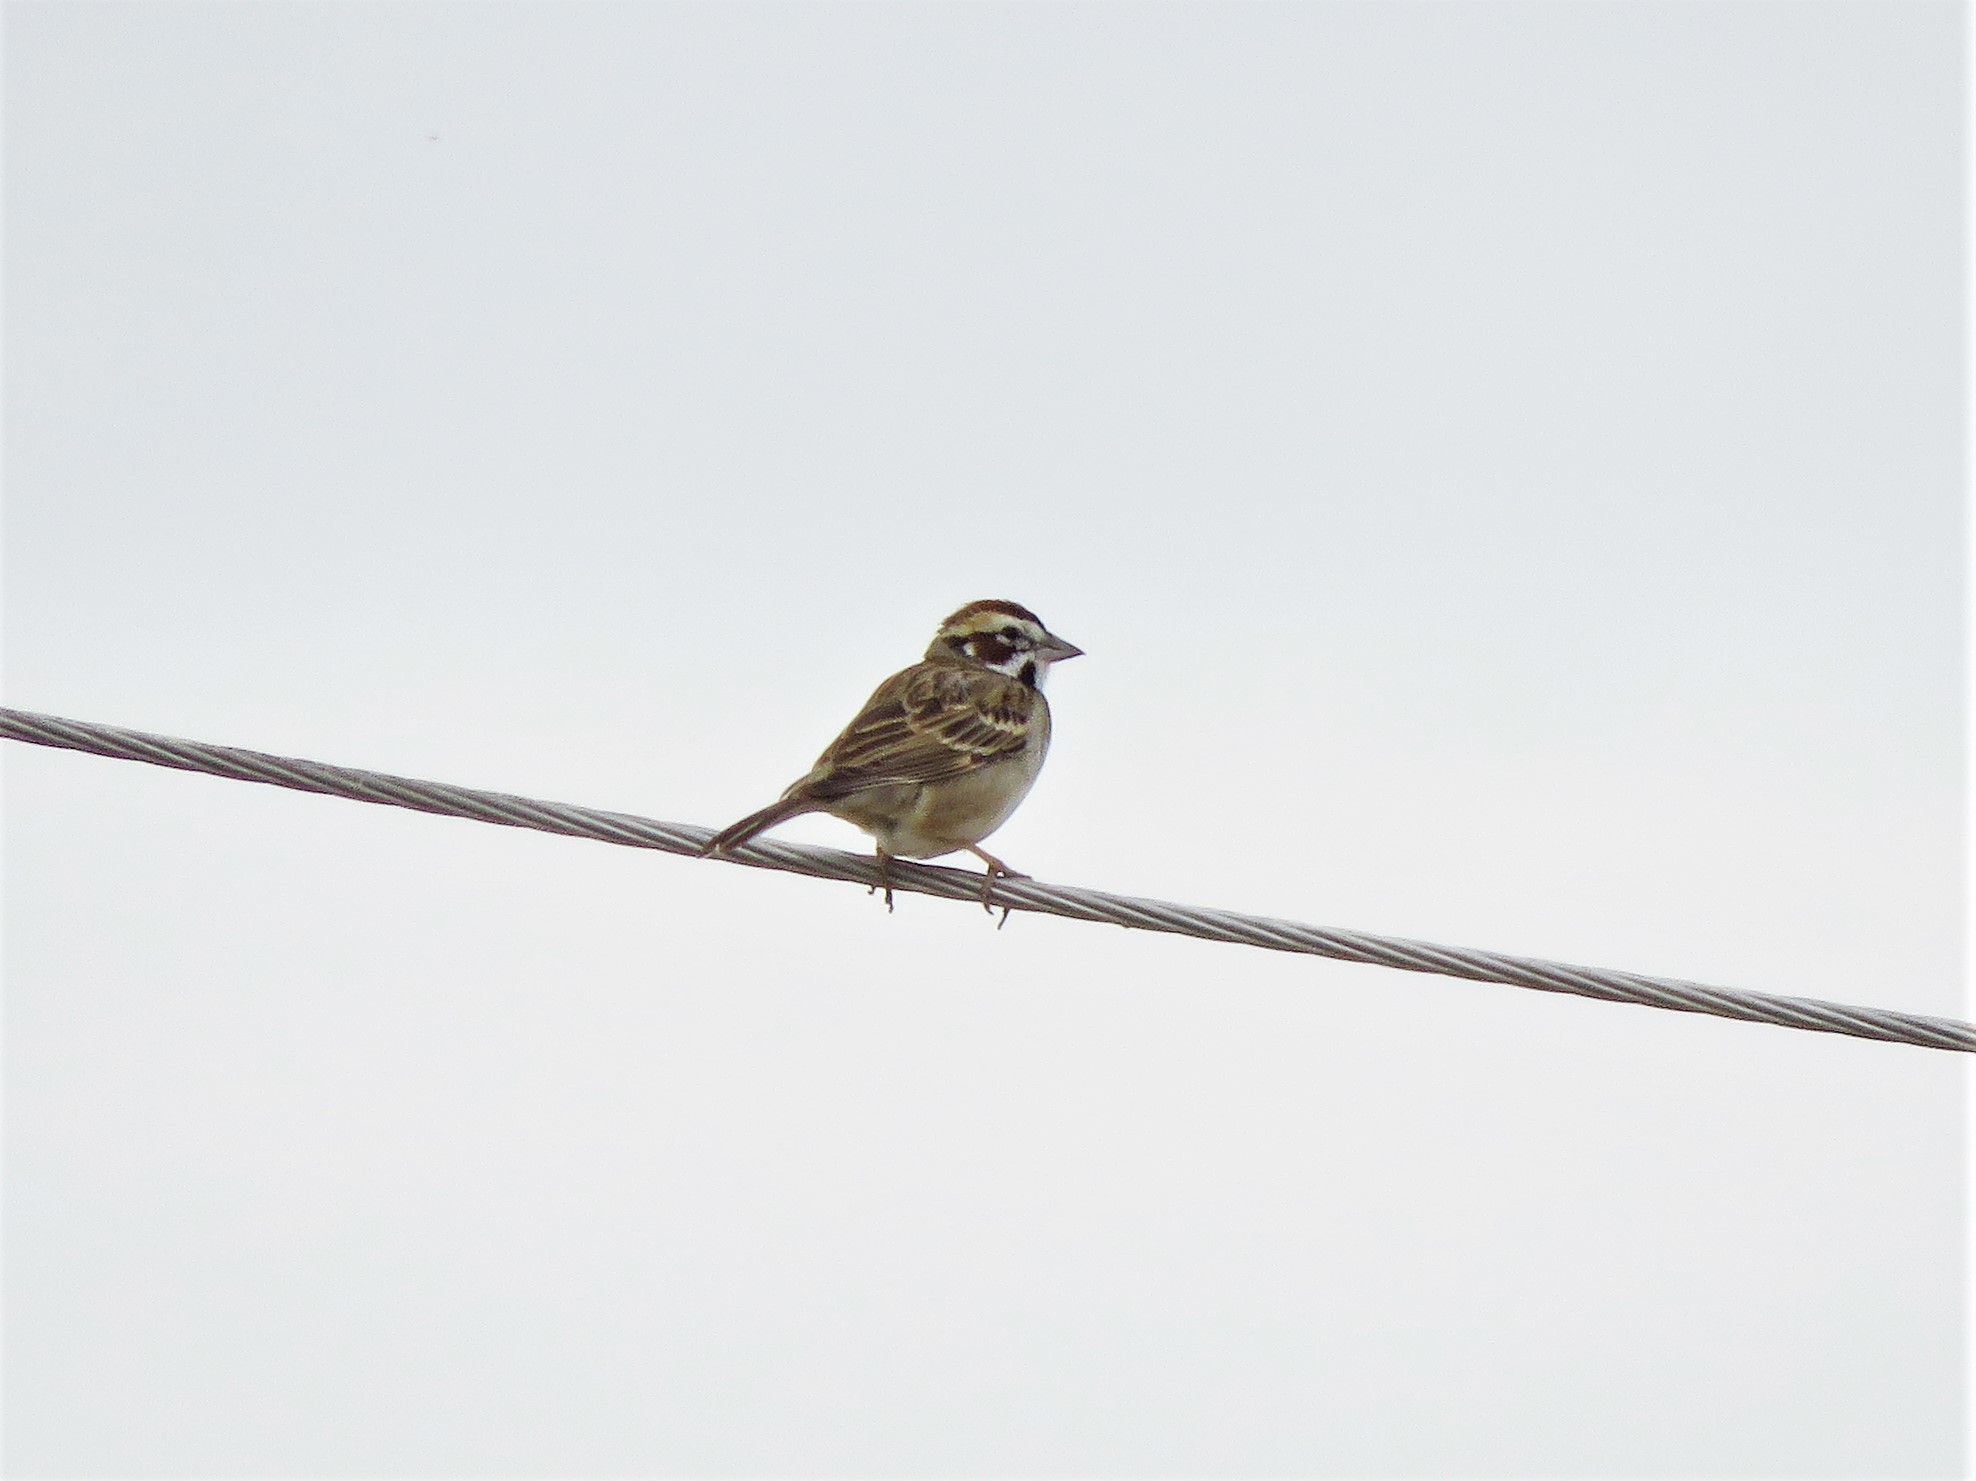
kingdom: Animalia
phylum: Chordata
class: Aves
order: Passeriformes
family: Passerellidae
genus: Chondestes
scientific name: Chondestes grammacus
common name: Lark sparrow
